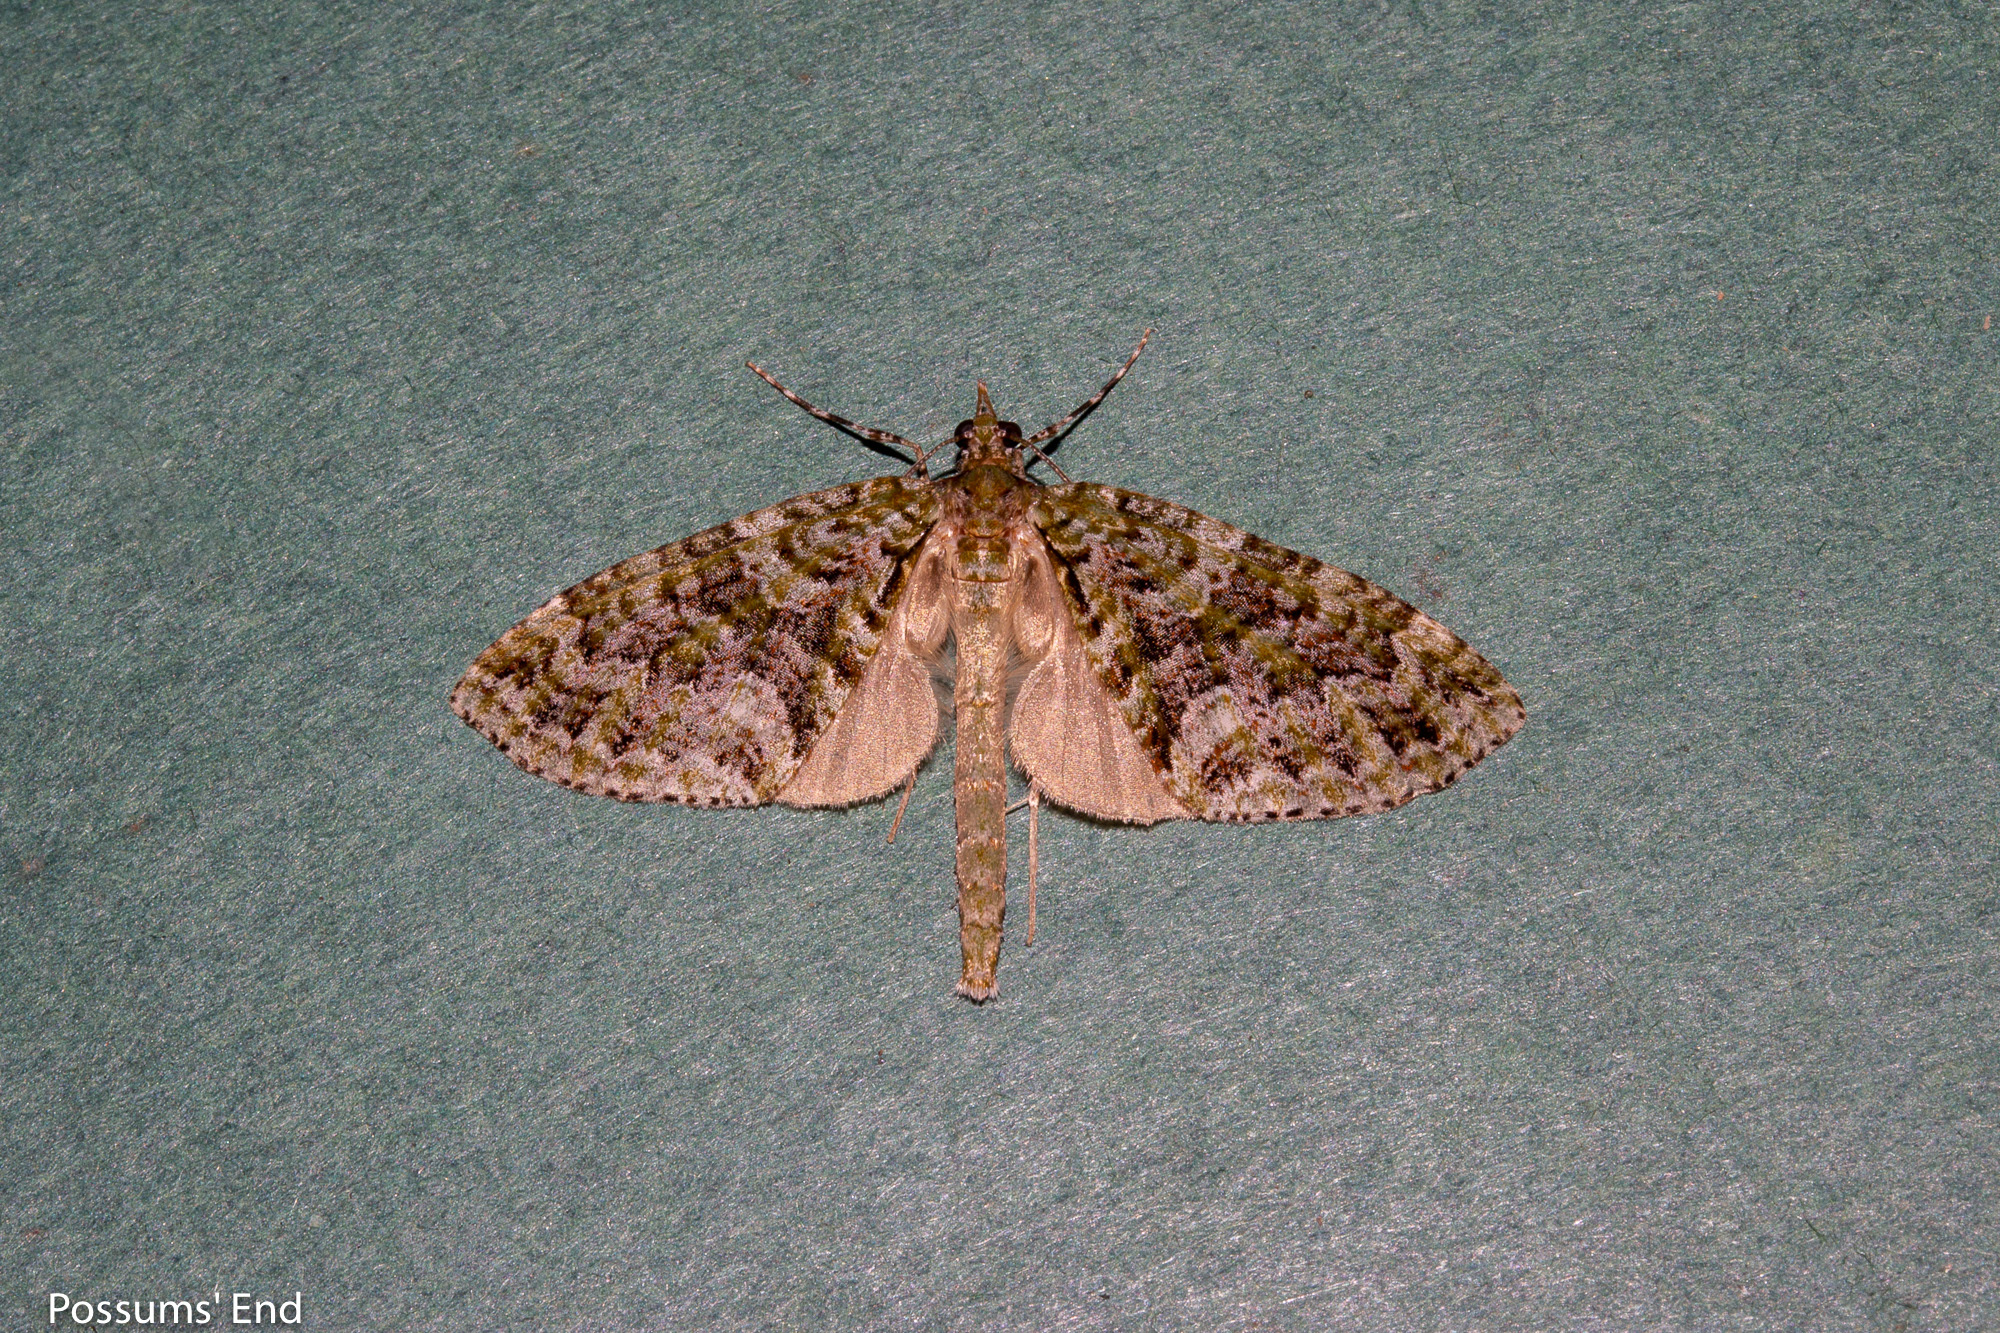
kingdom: Animalia
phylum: Arthropoda
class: Insecta
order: Lepidoptera
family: Geometridae
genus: Tatosoma
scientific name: Tatosoma agrionata
